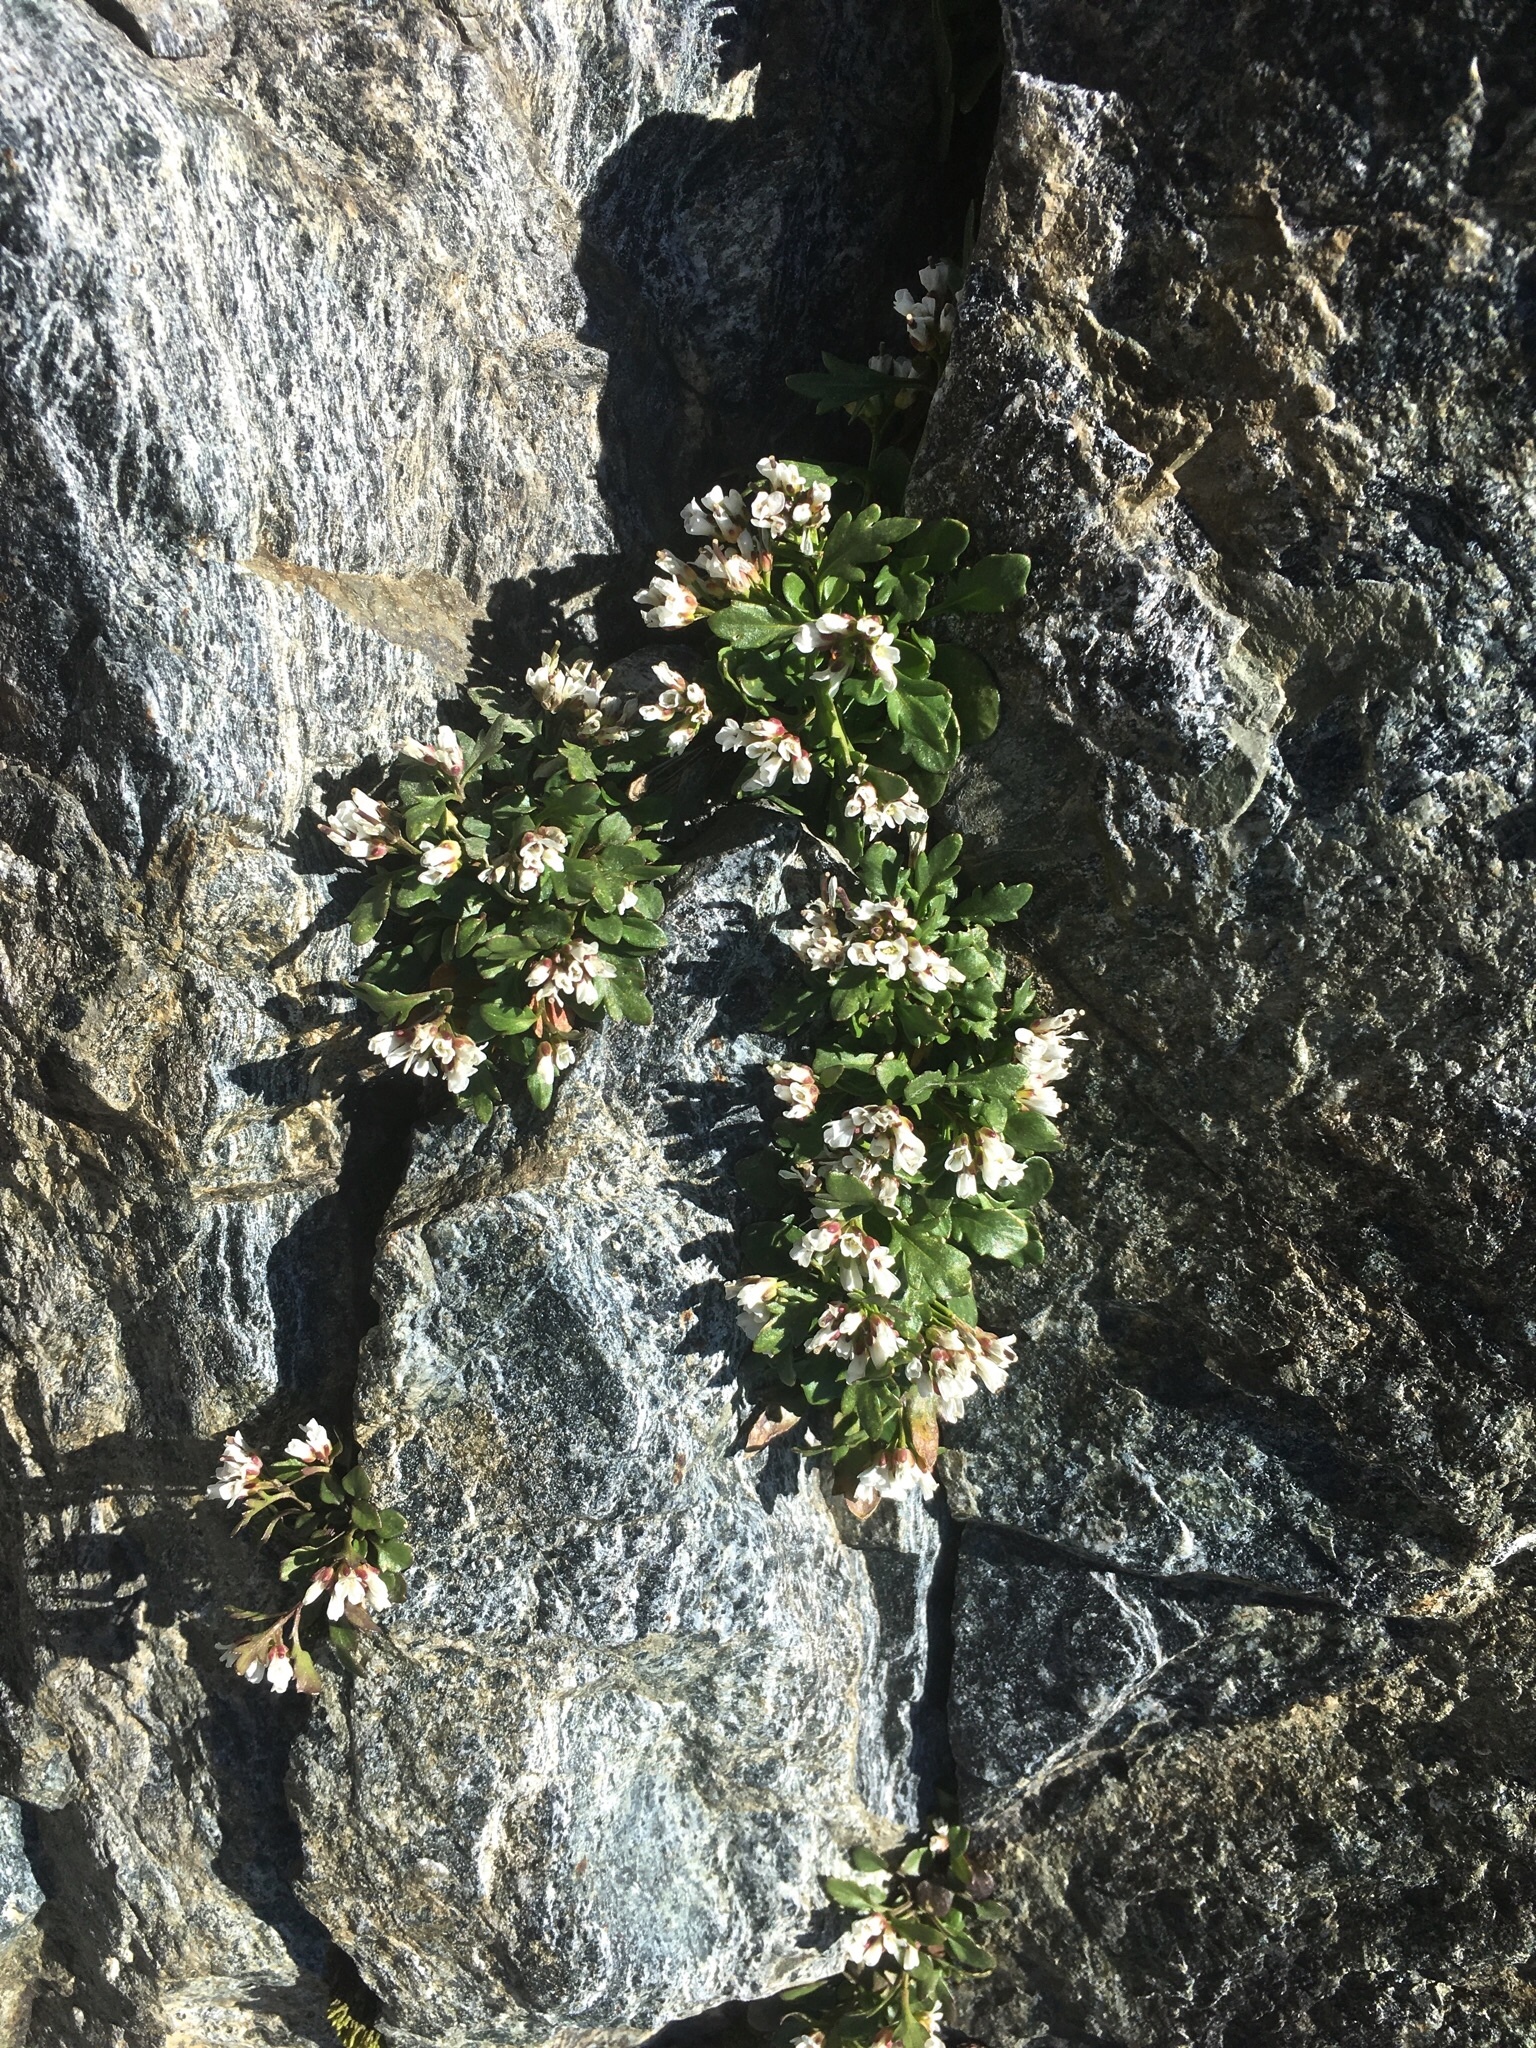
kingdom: Plantae
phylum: Tracheophyta
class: Magnoliopsida
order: Brassicales
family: Brassicaceae
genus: Cardamine
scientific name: Cardamine resedifolia
